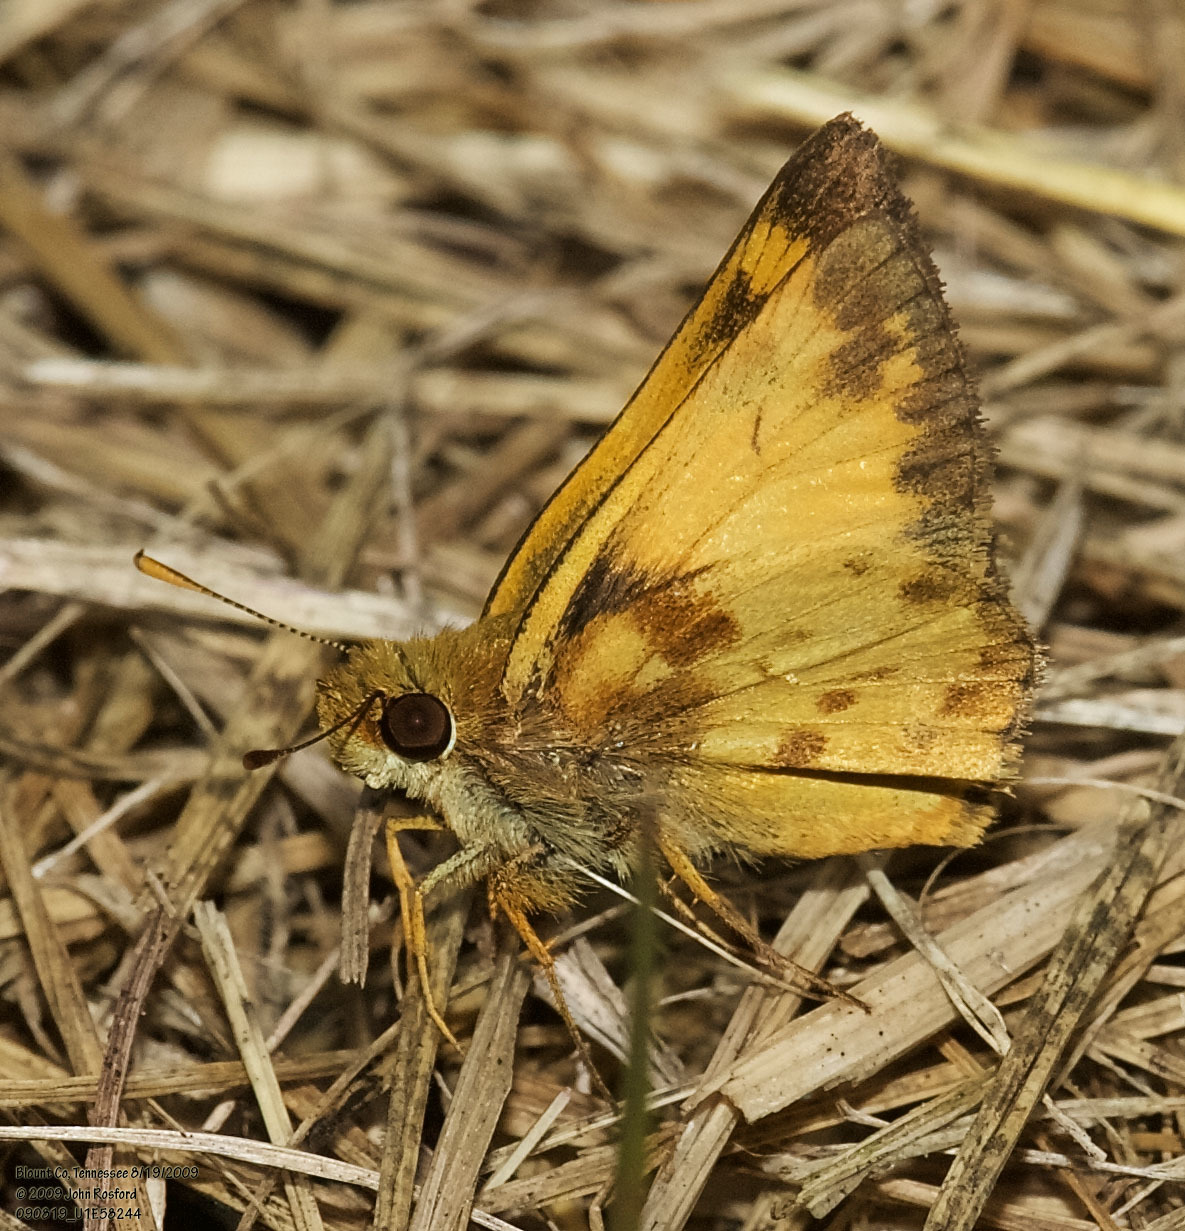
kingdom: Animalia
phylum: Arthropoda
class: Insecta
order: Lepidoptera
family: Hesperiidae
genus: Lon
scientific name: Lon zabulon
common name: Zabulon skipper
